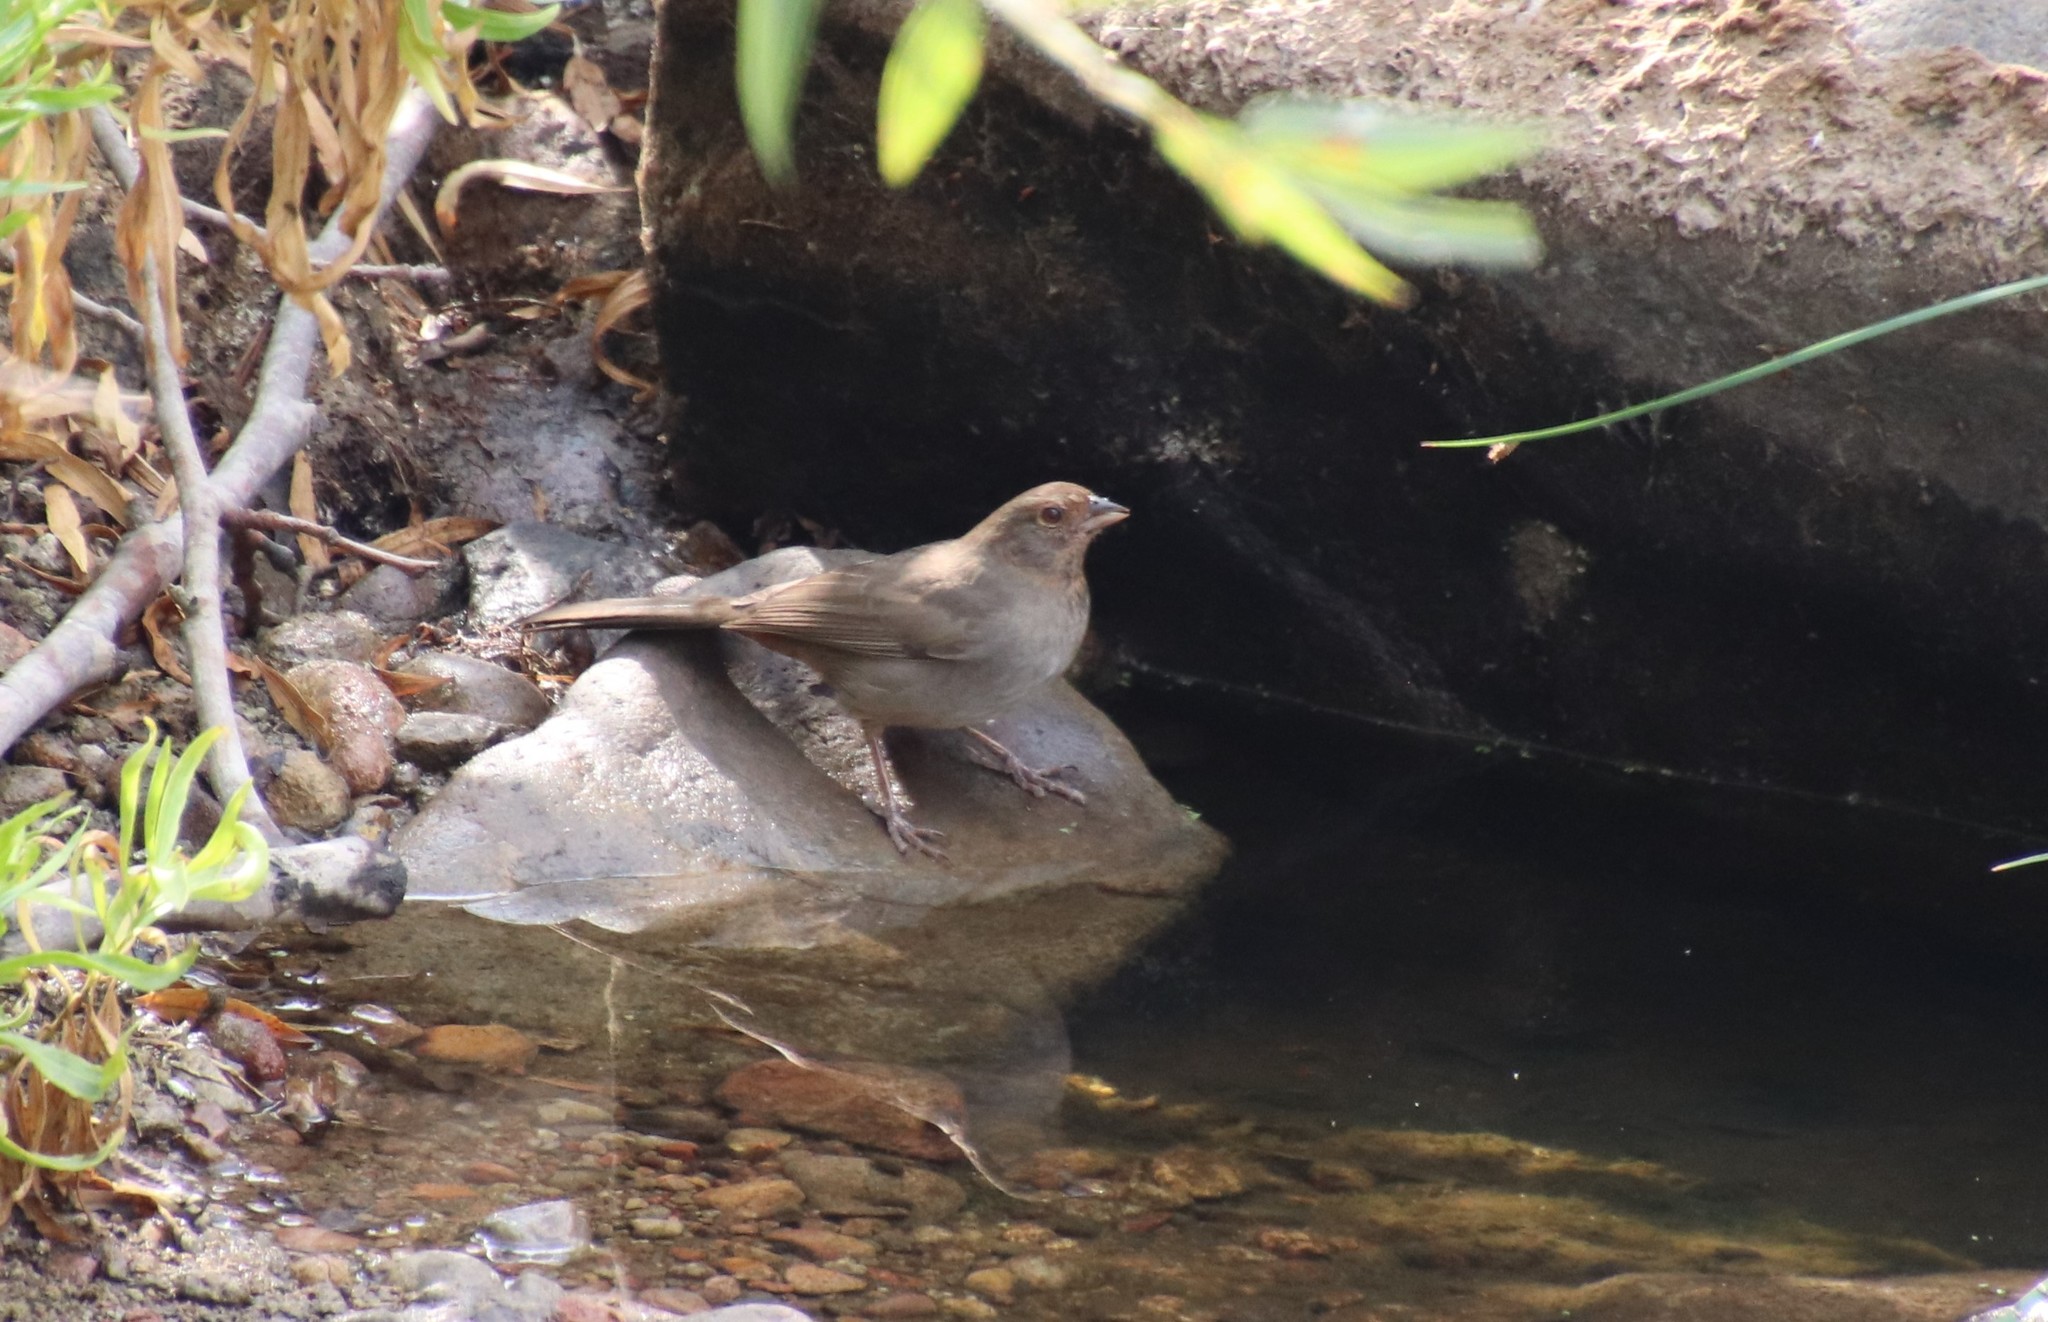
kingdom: Animalia
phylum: Chordata
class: Aves
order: Passeriformes
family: Passerellidae
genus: Melozone
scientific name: Melozone crissalis
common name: California towhee
